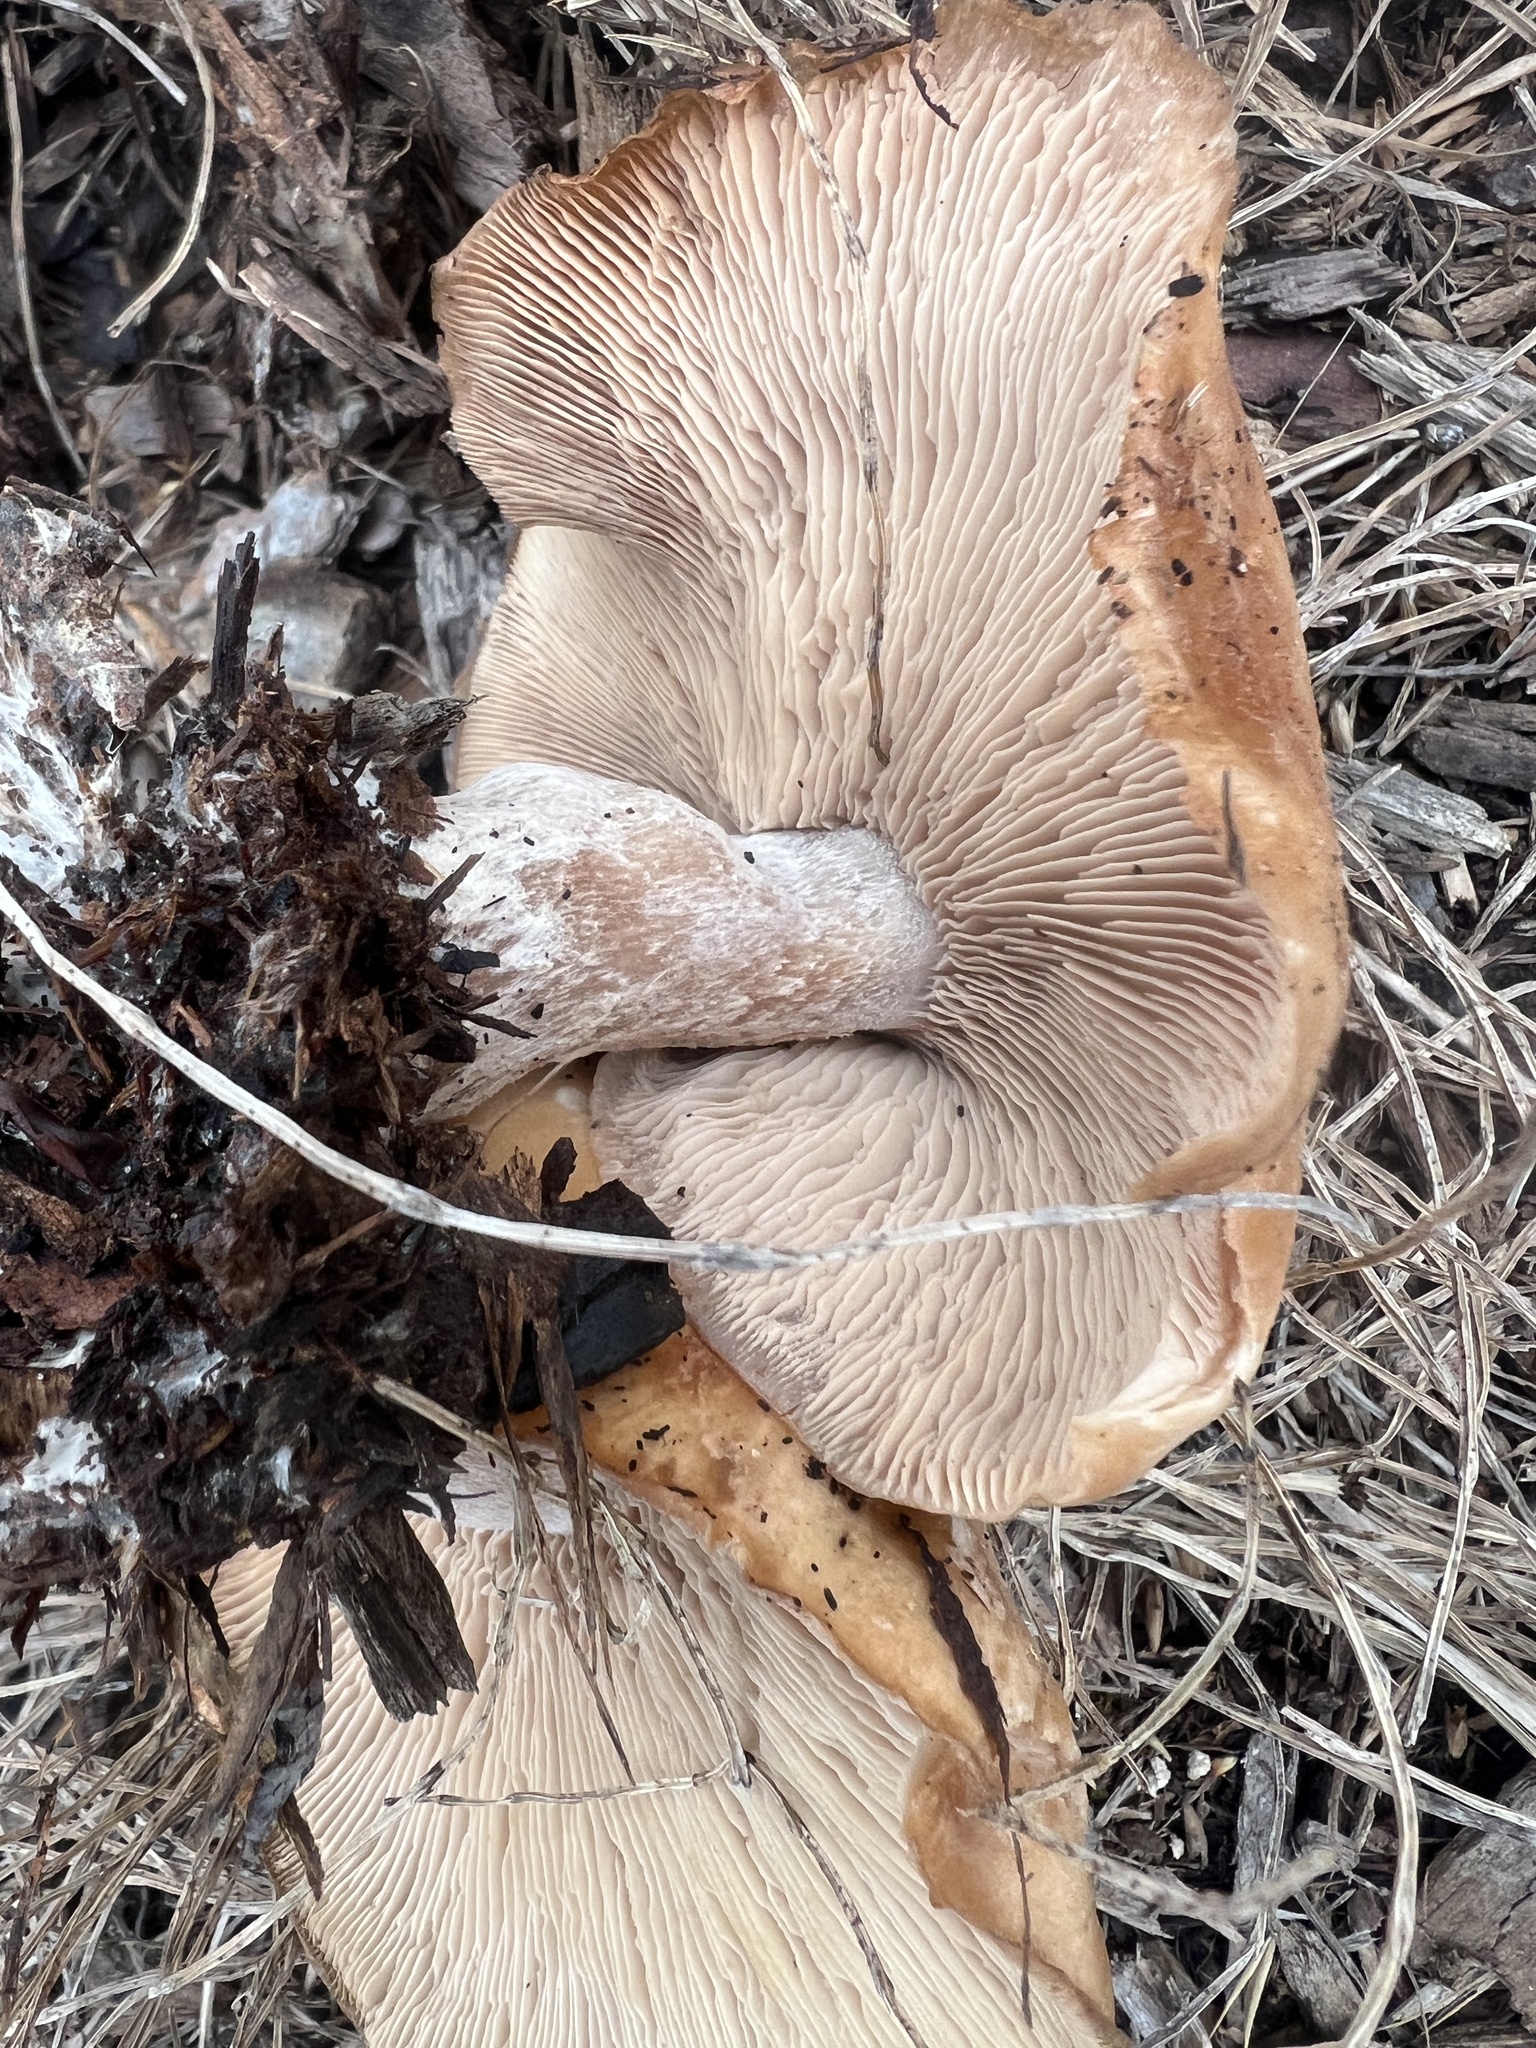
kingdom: Fungi
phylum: Basidiomycota
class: Agaricomycetes
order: Agaricales
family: Tricholomataceae
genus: Collybia
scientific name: Collybia
